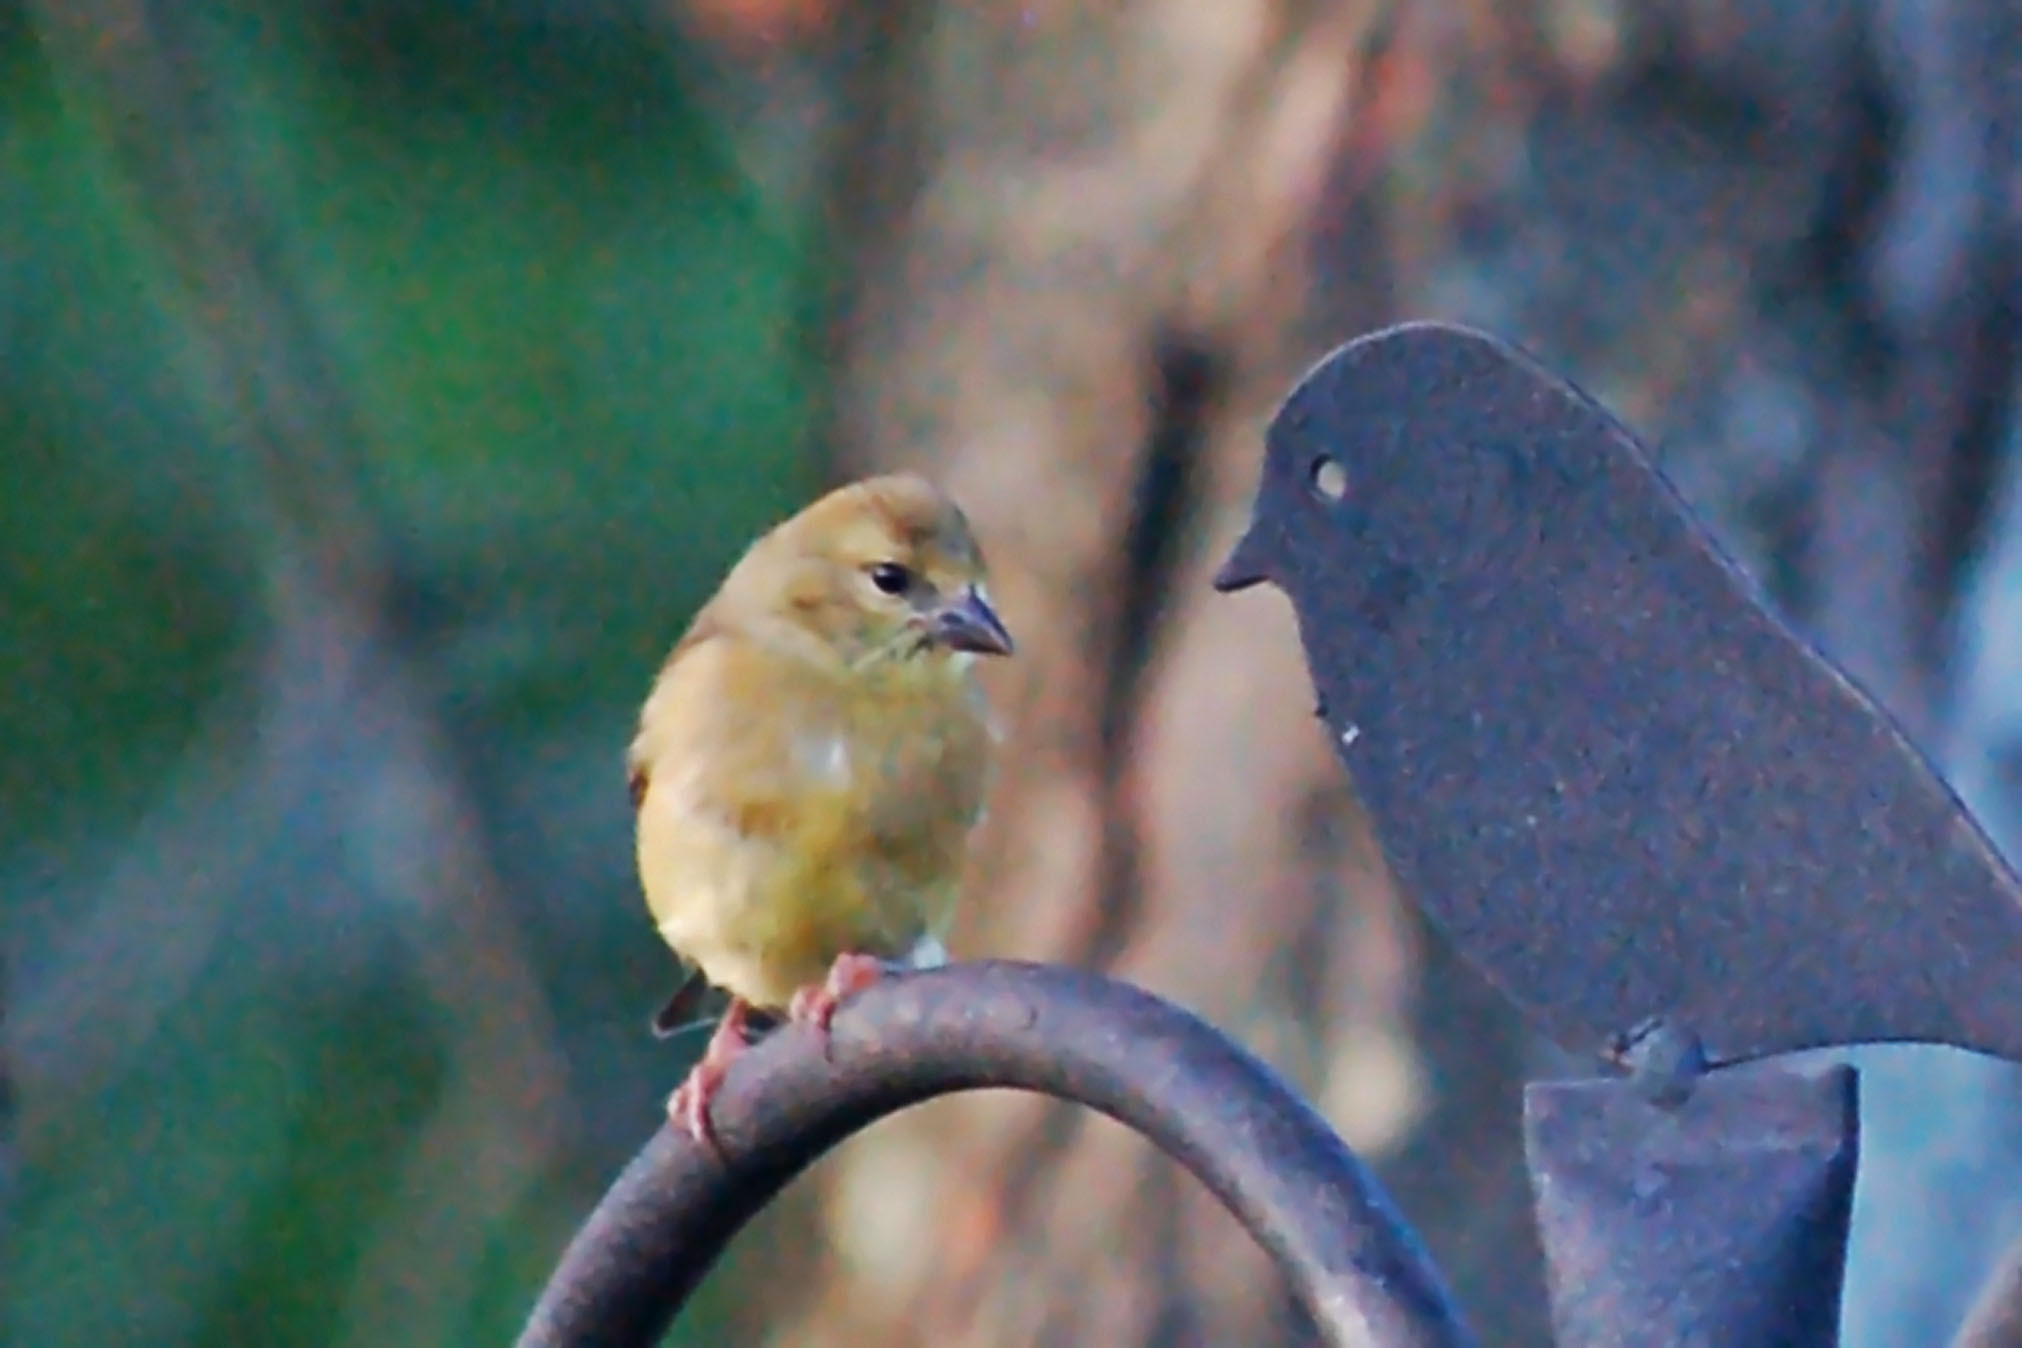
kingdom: Animalia
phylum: Chordata
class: Aves
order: Passeriformes
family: Fringillidae
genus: Spinus
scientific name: Spinus tristis
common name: American goldfinch
